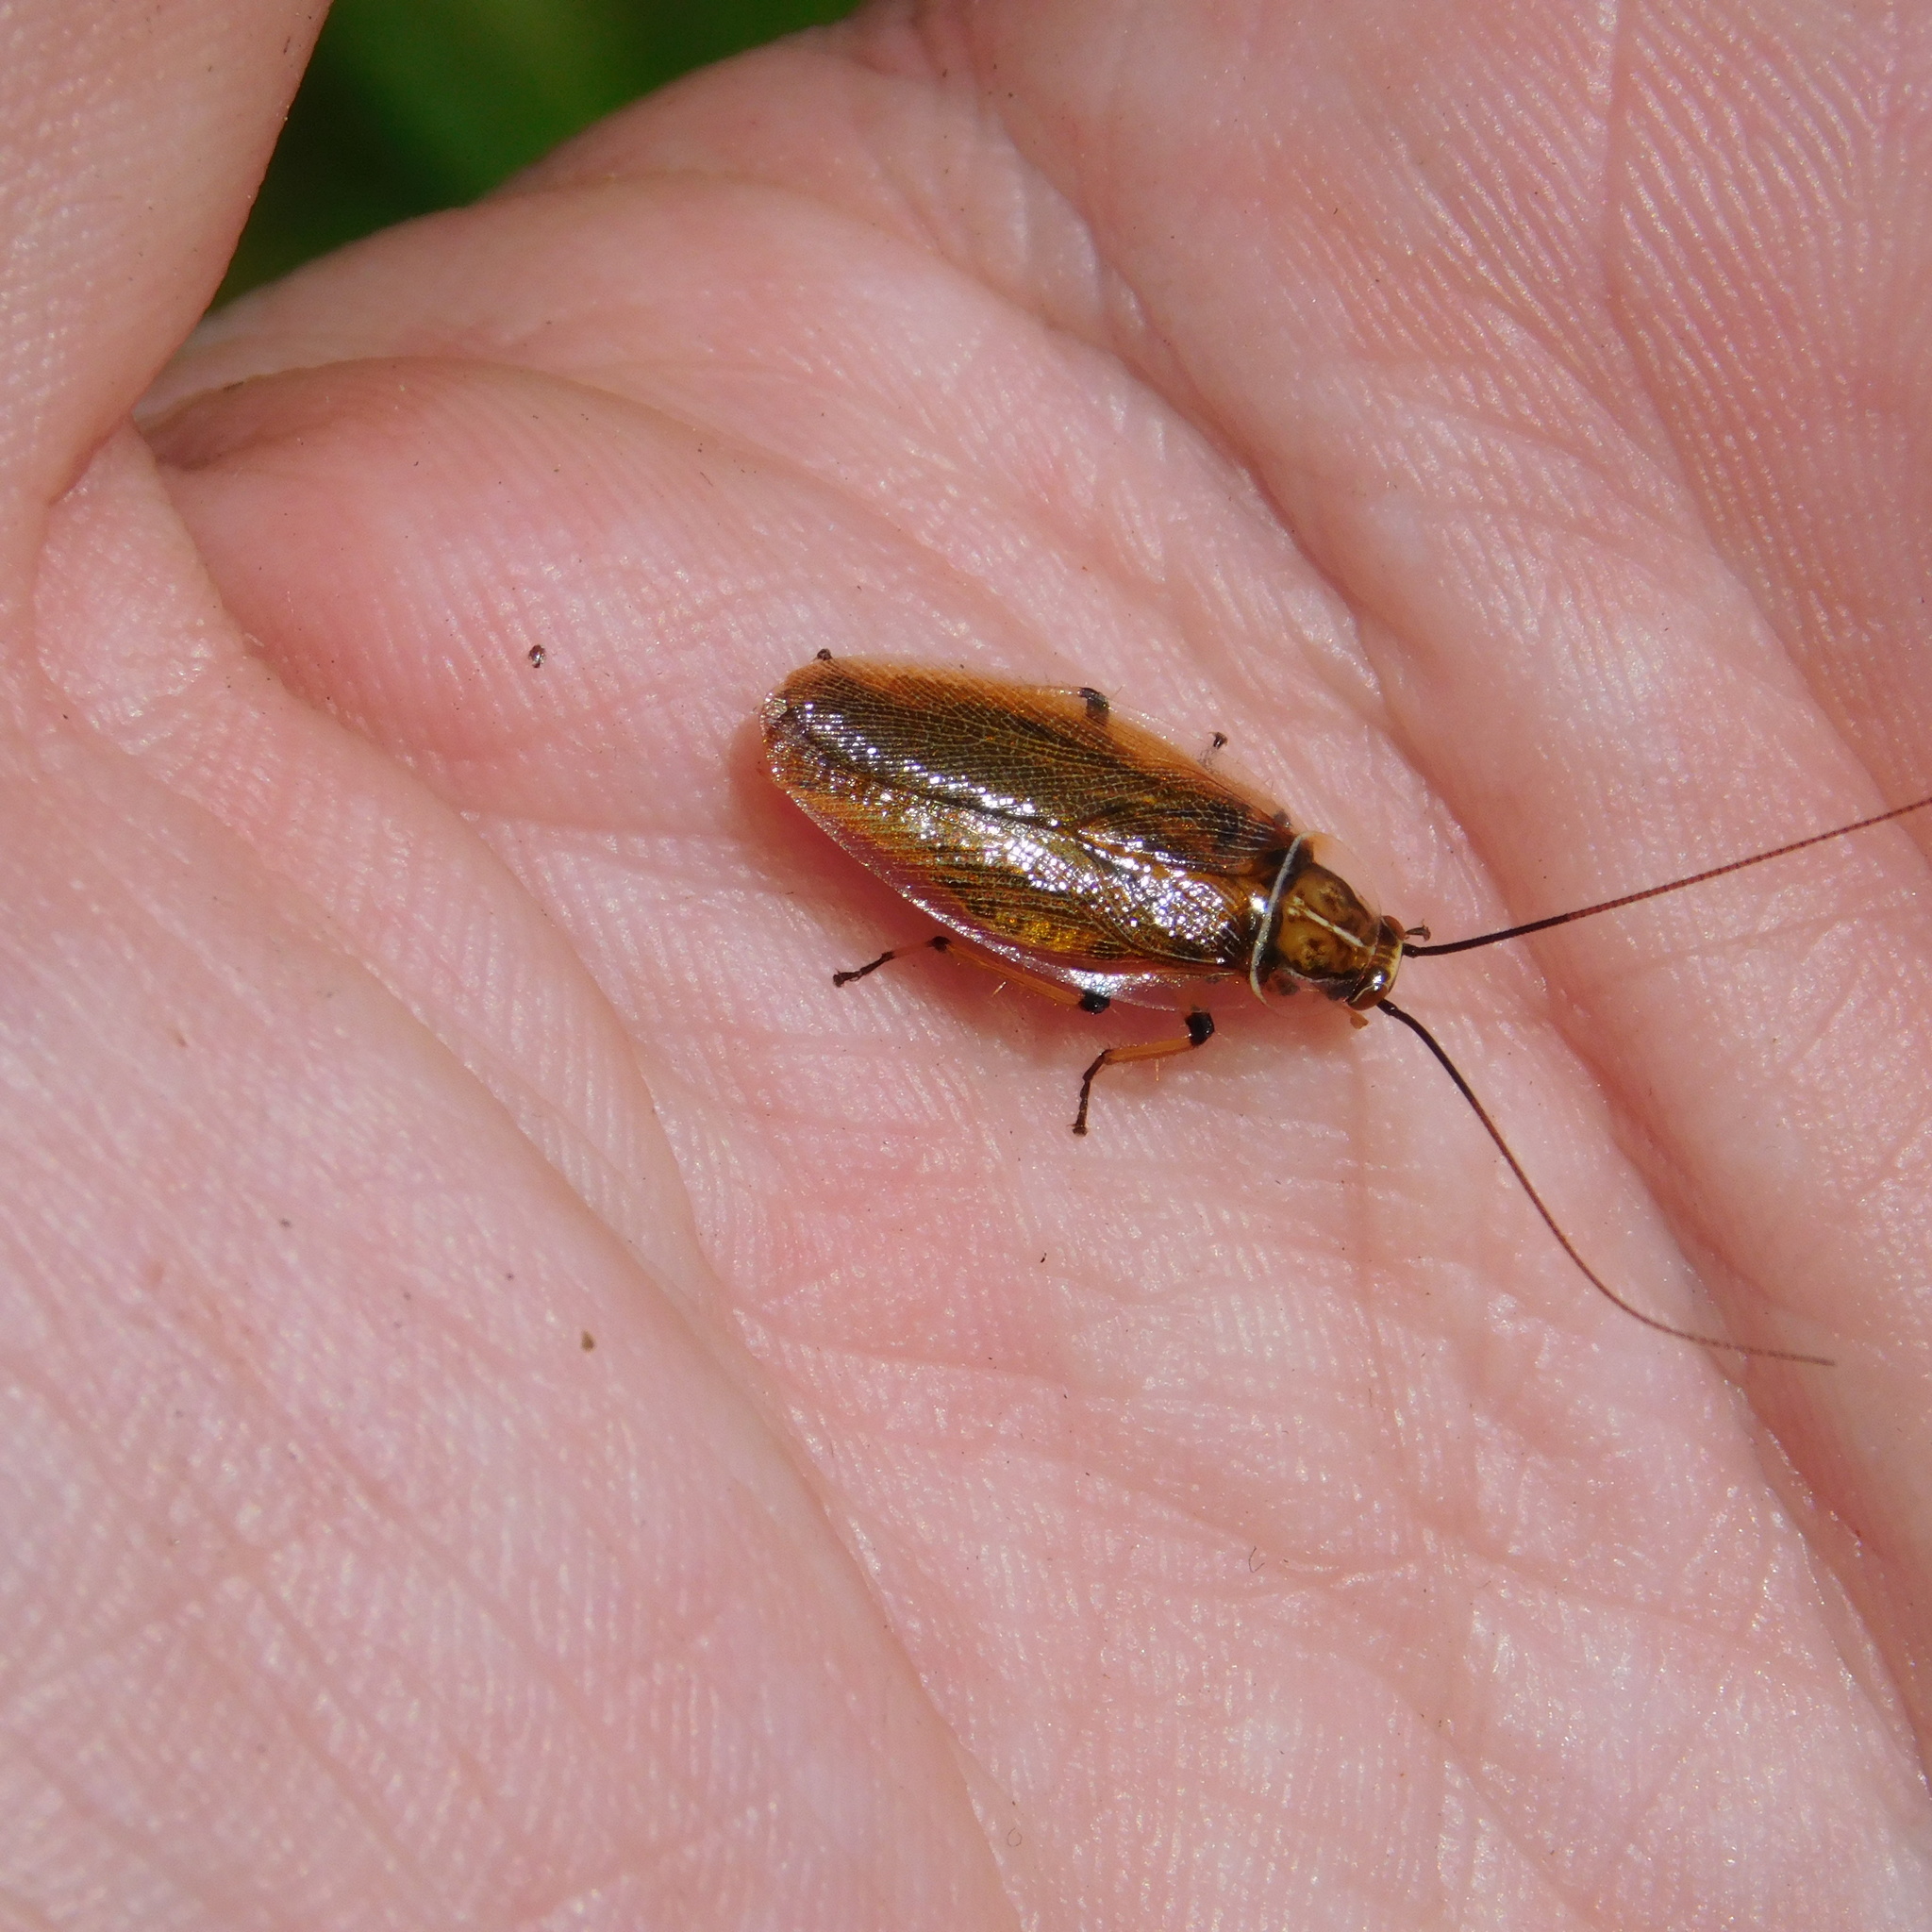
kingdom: Animalia
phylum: Arthropoda
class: Insecta
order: Blattodea
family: Ectobiidae
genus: Balta
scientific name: Balta bicolor
